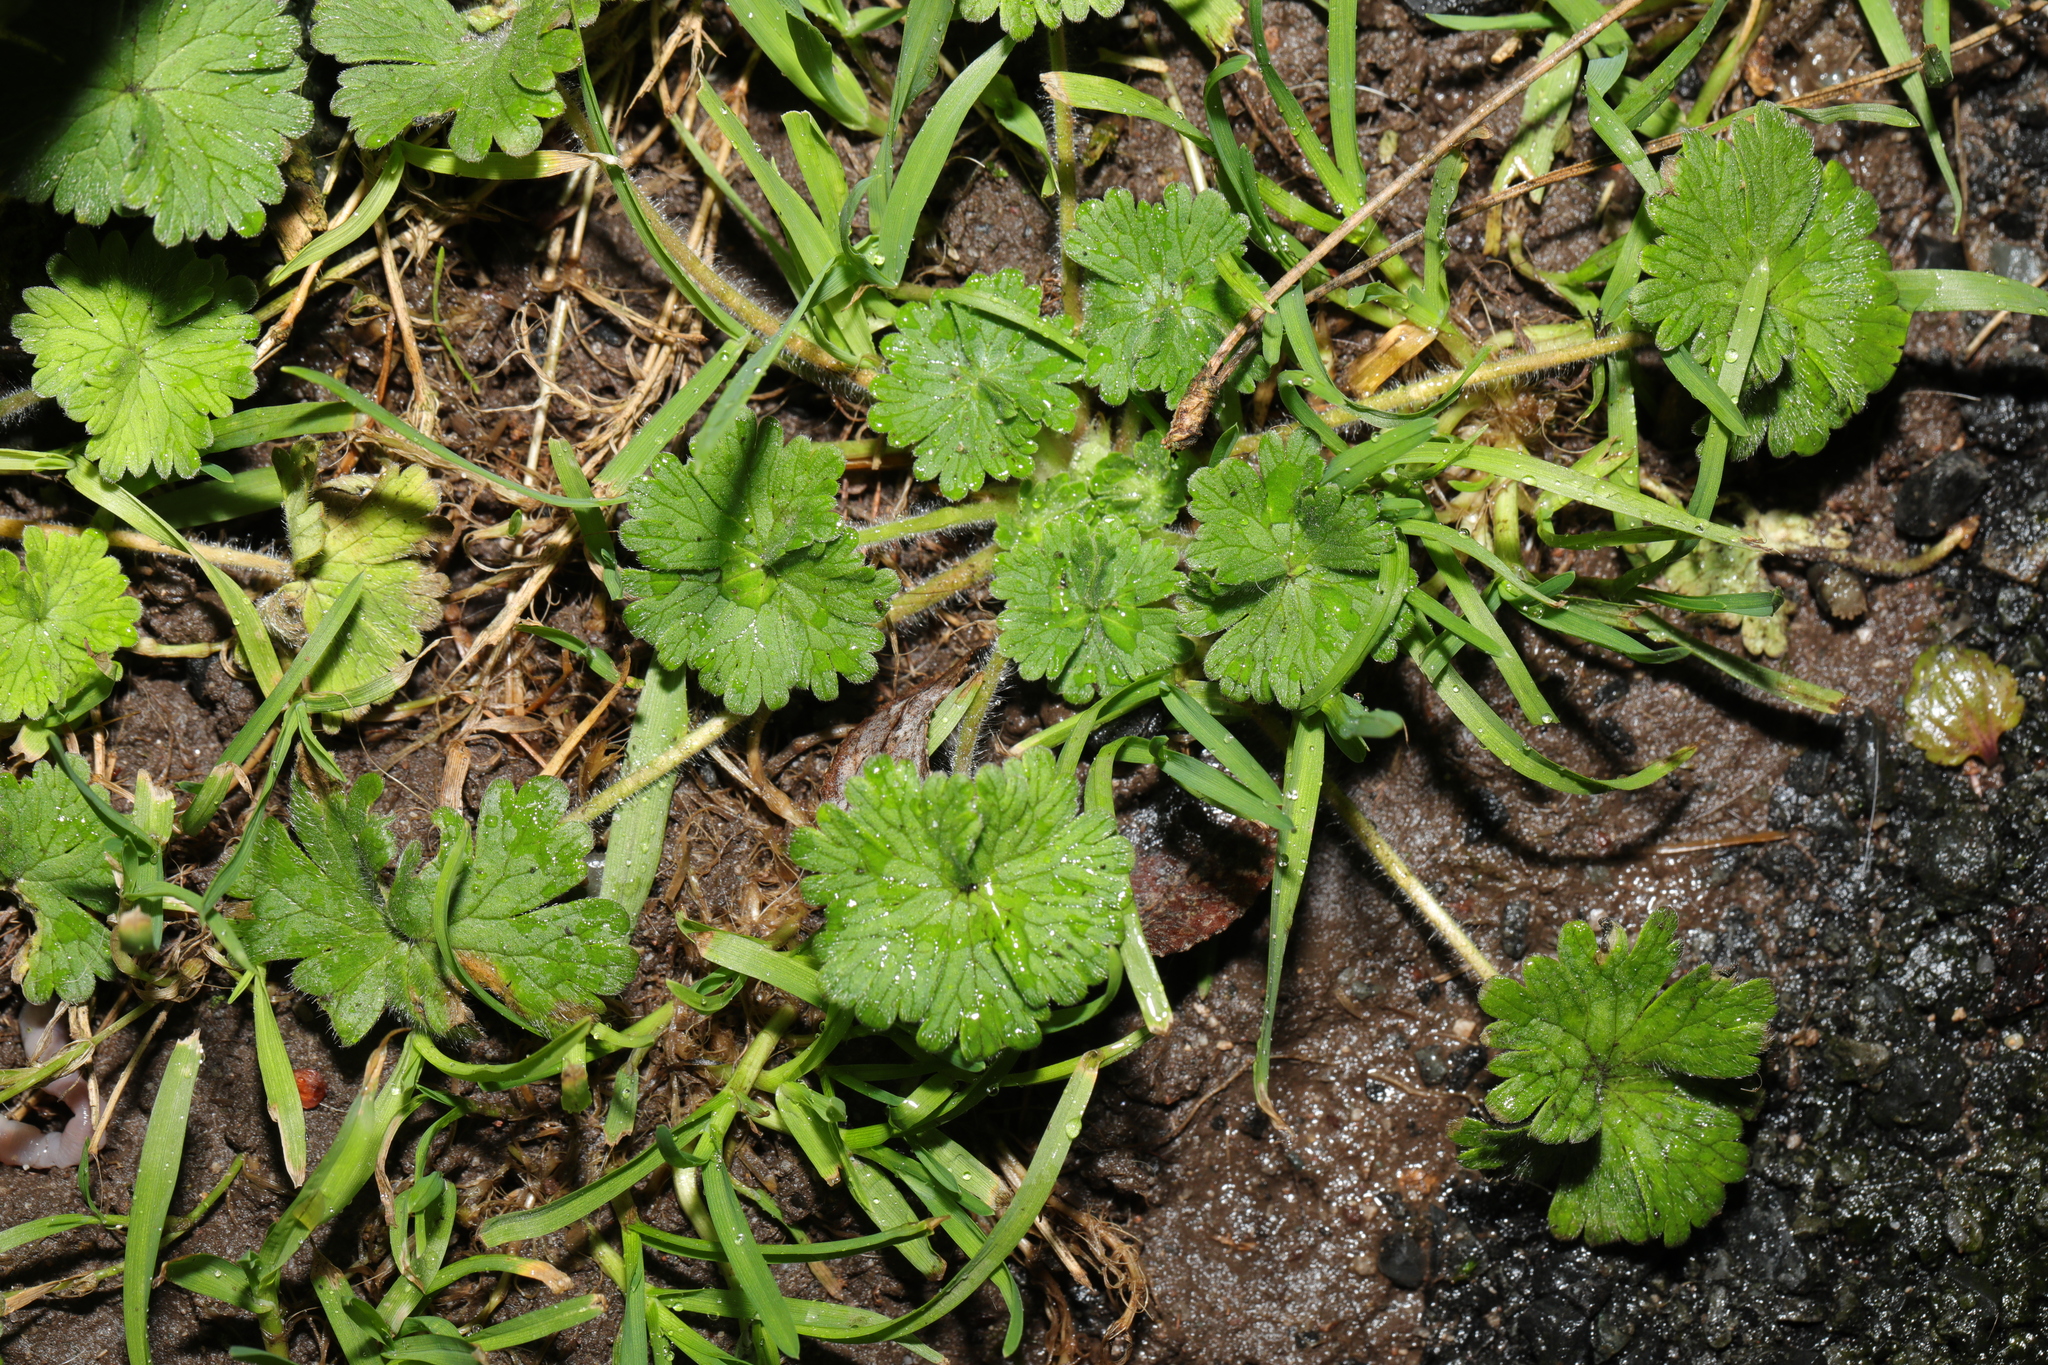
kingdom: Plantae
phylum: Tracheophyta
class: Magnoliopsida
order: Geraniales
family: Geraniaceae
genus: Geranium
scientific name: Geranium molle
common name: Dove's-foot crane's-bill
